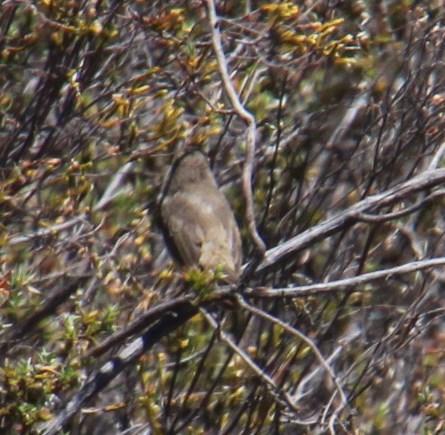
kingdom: Animalia
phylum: Chordata
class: Aves
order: Passeriformes
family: Cisticolidae
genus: Prinia
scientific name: Prinia maculosa
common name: Karoo prinia
